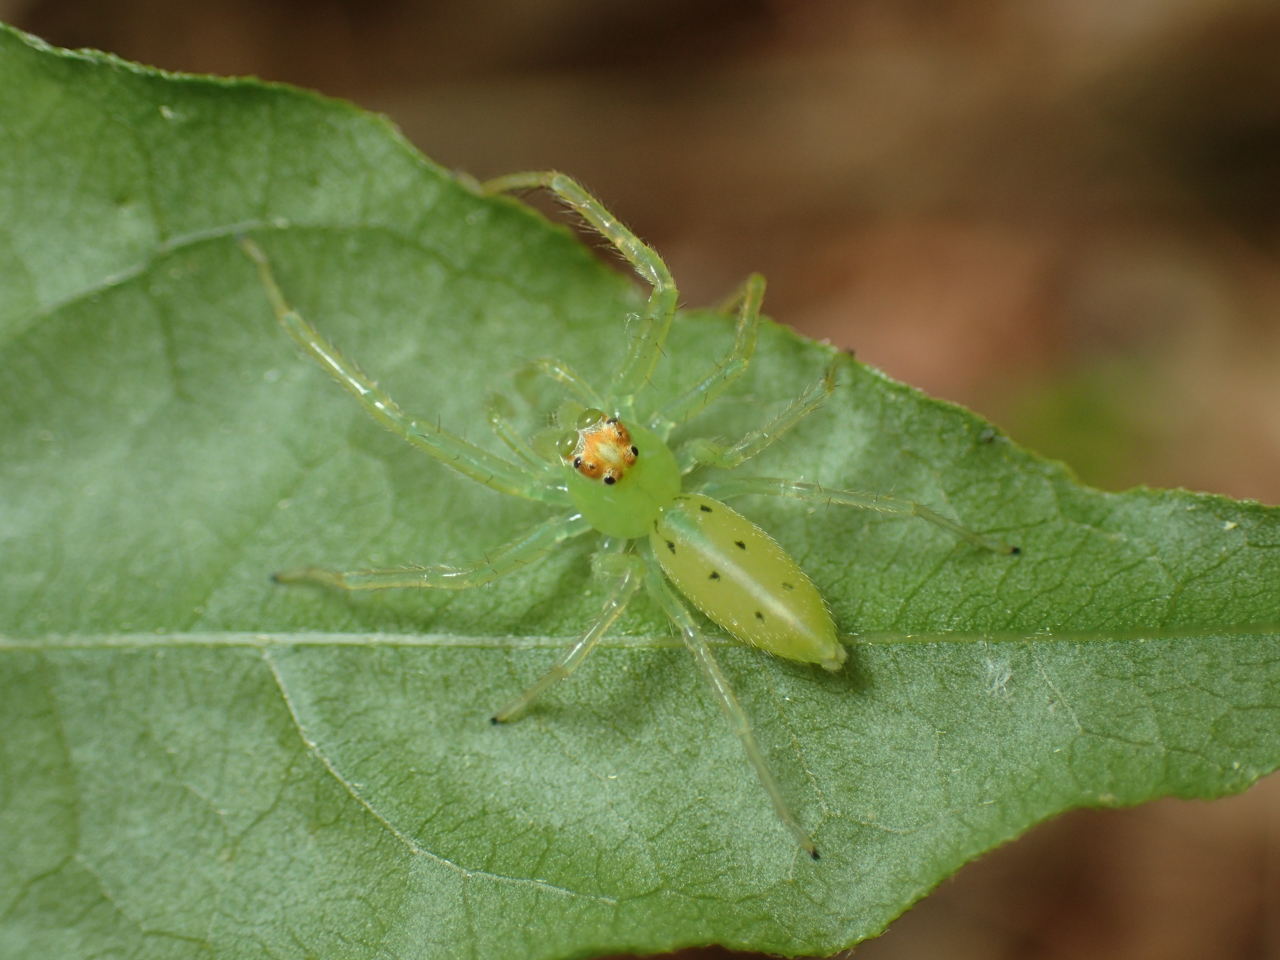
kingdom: Animalia
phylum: Arthropoda
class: Arachnida
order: Araneae
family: Salticidae
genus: Lyssomanes
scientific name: Lyssomanes viridis
